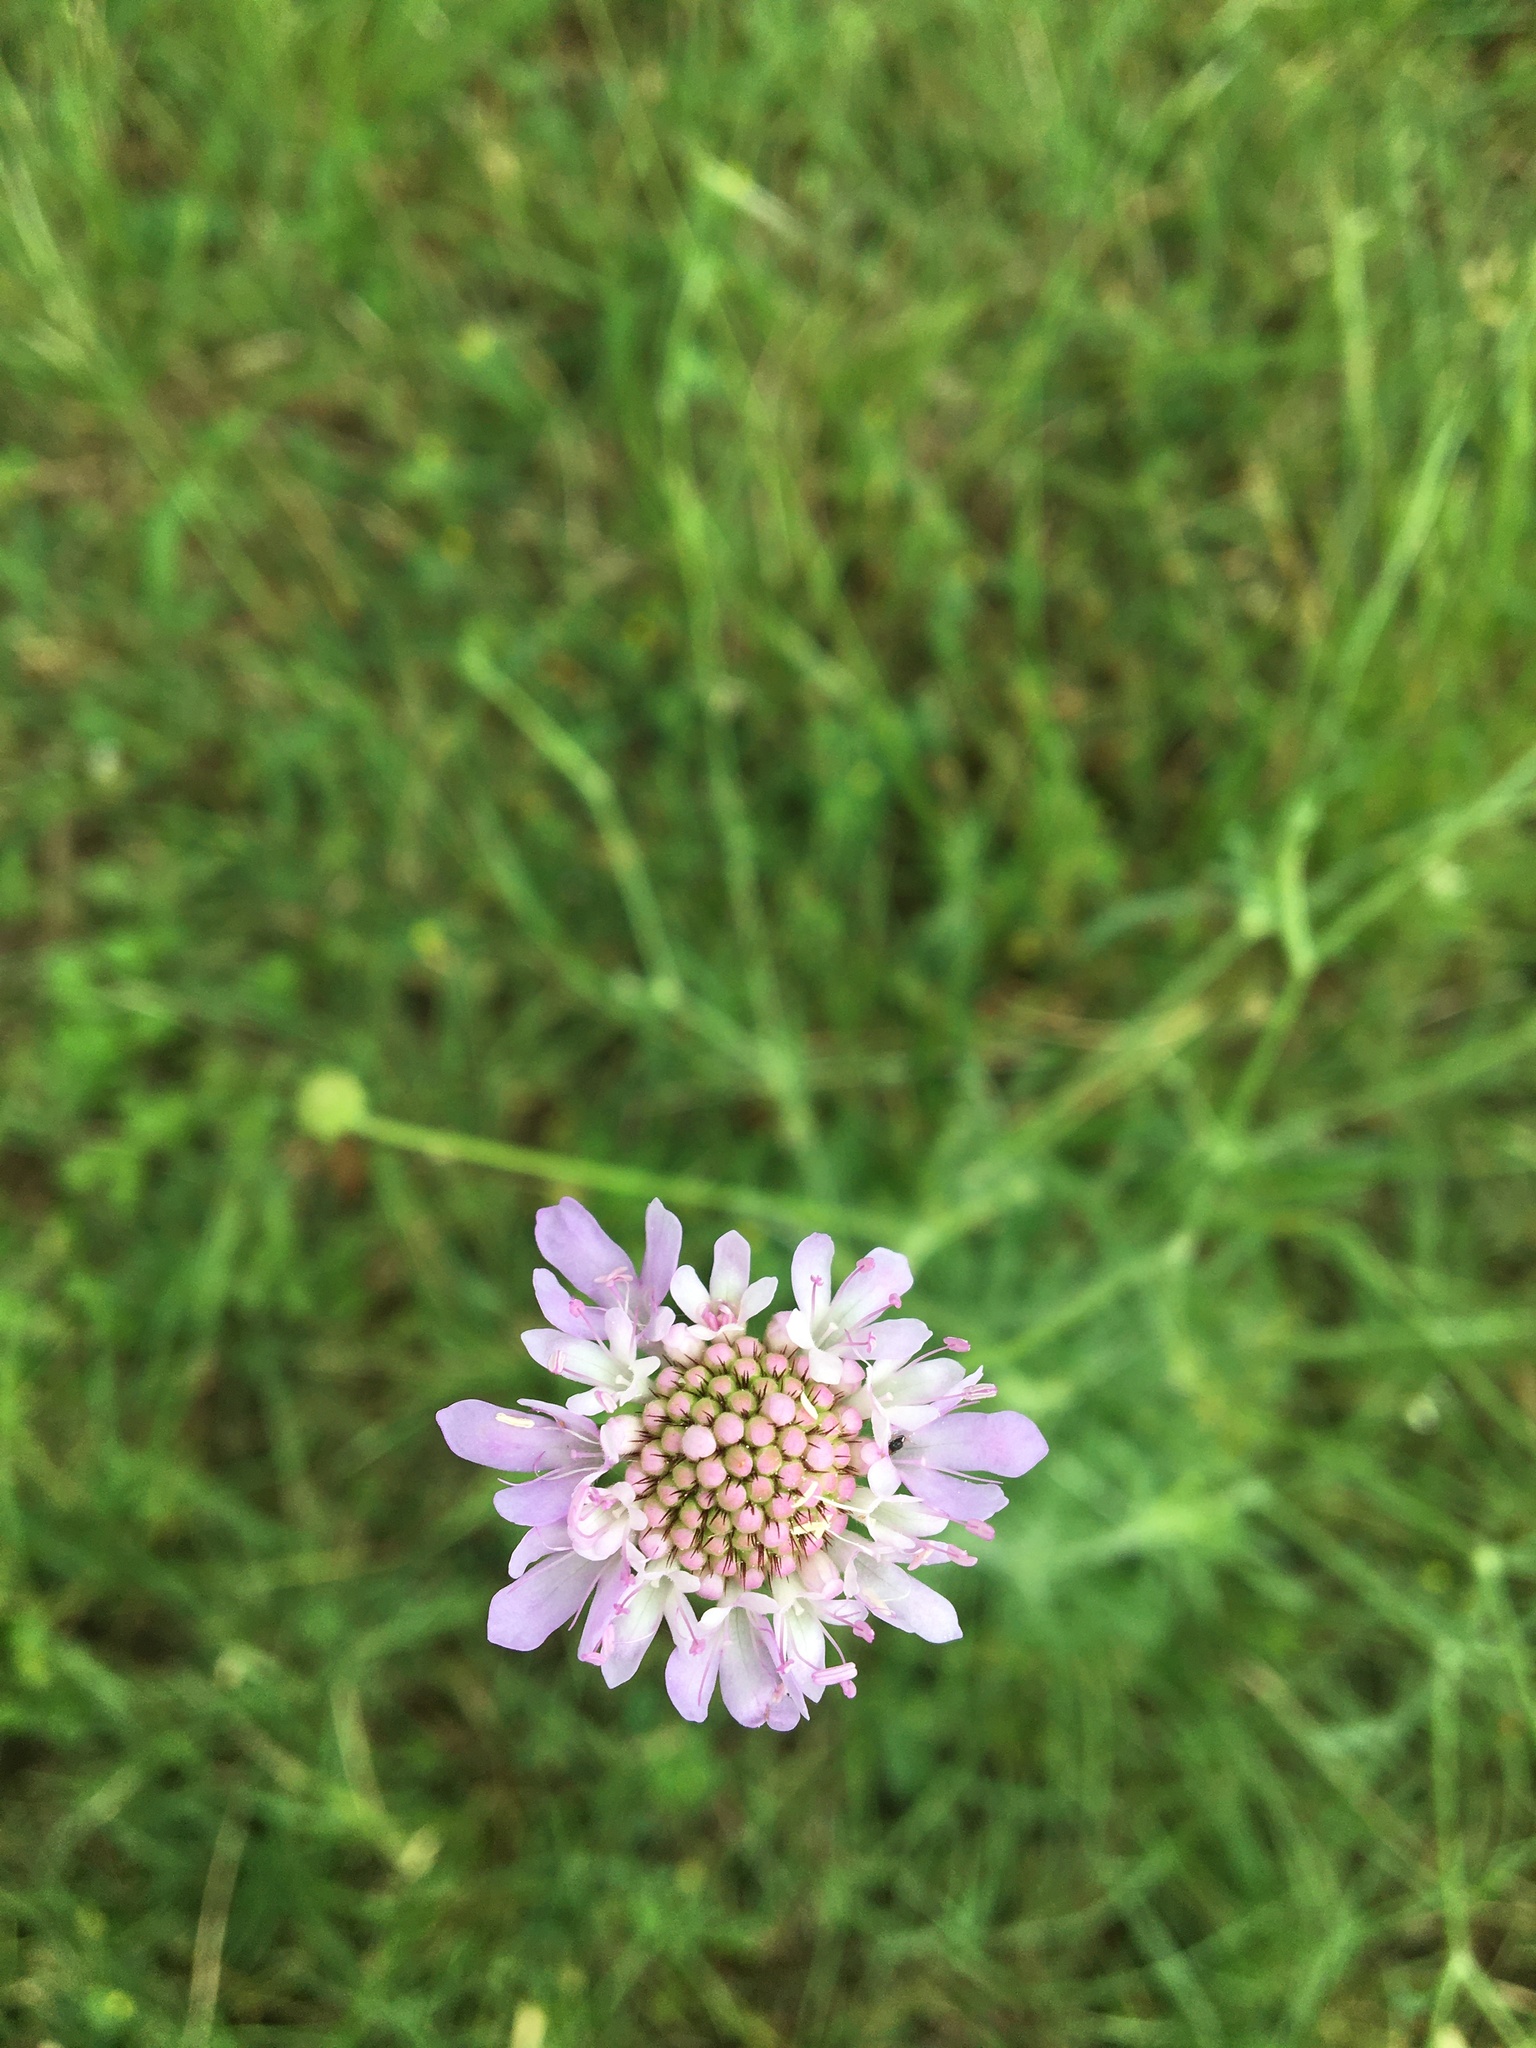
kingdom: Plantae
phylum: Tracheophyta
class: Magnoliopsida
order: Dipsacales
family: Caprifoliaceae
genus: Sixalix
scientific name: Sixalix atropurpurea
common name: Sweet scabious
